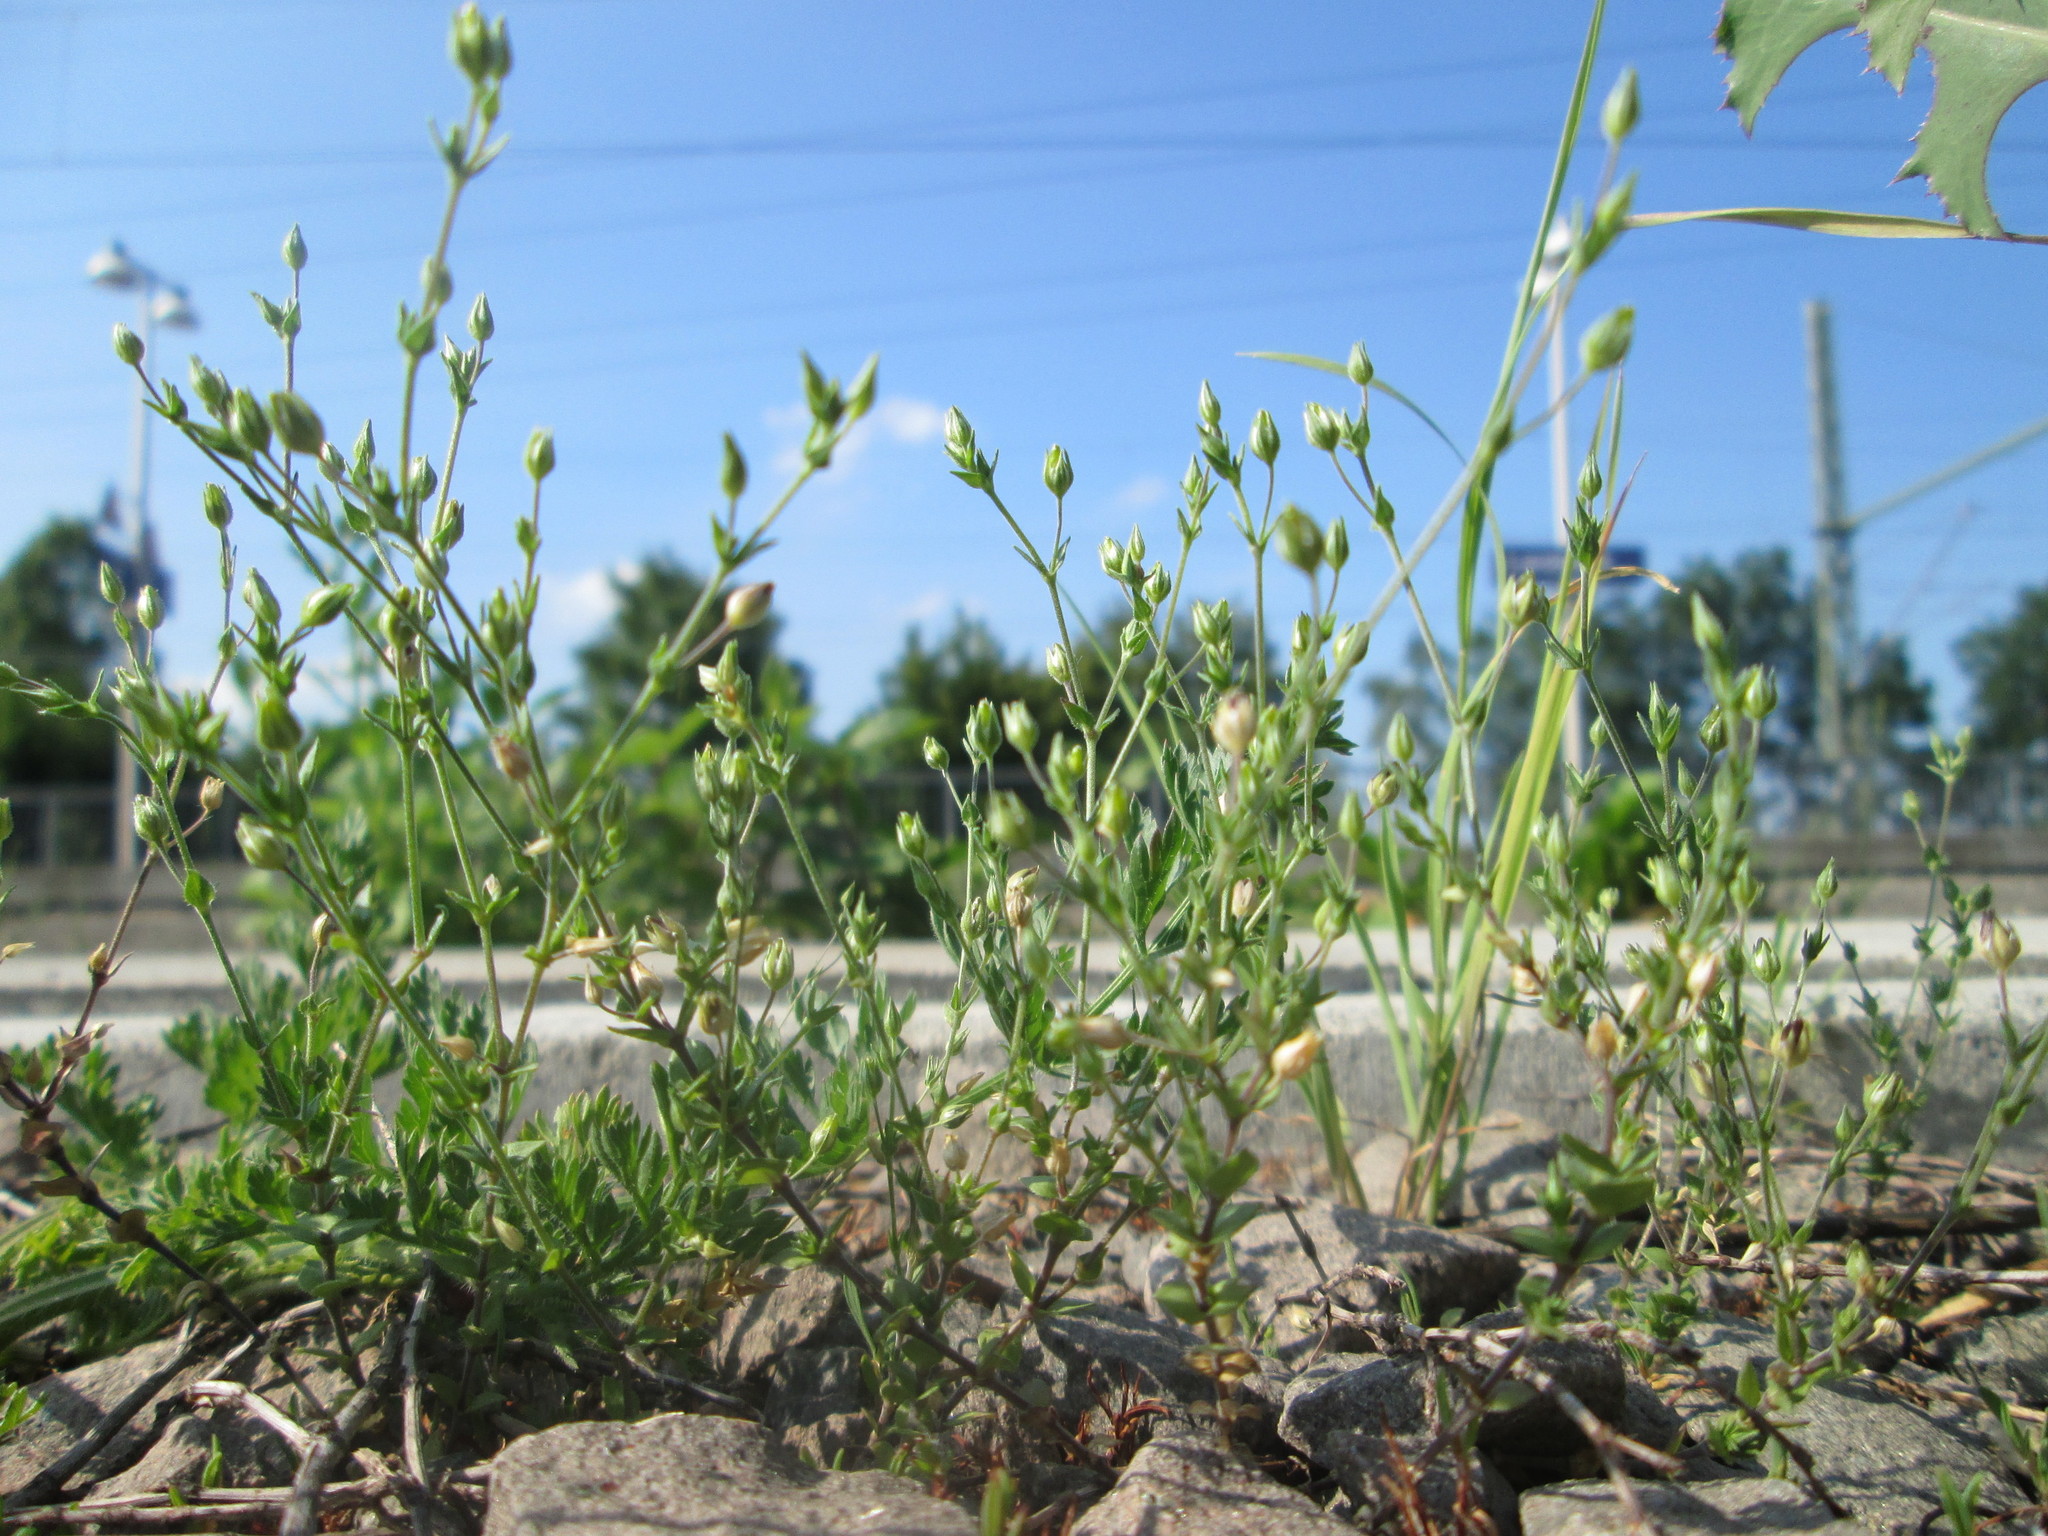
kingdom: Plantae
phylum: Tracheophyta
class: Magnoliopsida
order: Caryophyllales
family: Caryophyllaceae
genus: Arenaria
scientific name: Arenaria serpyllifolia
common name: Thyme-leaved sandwort
